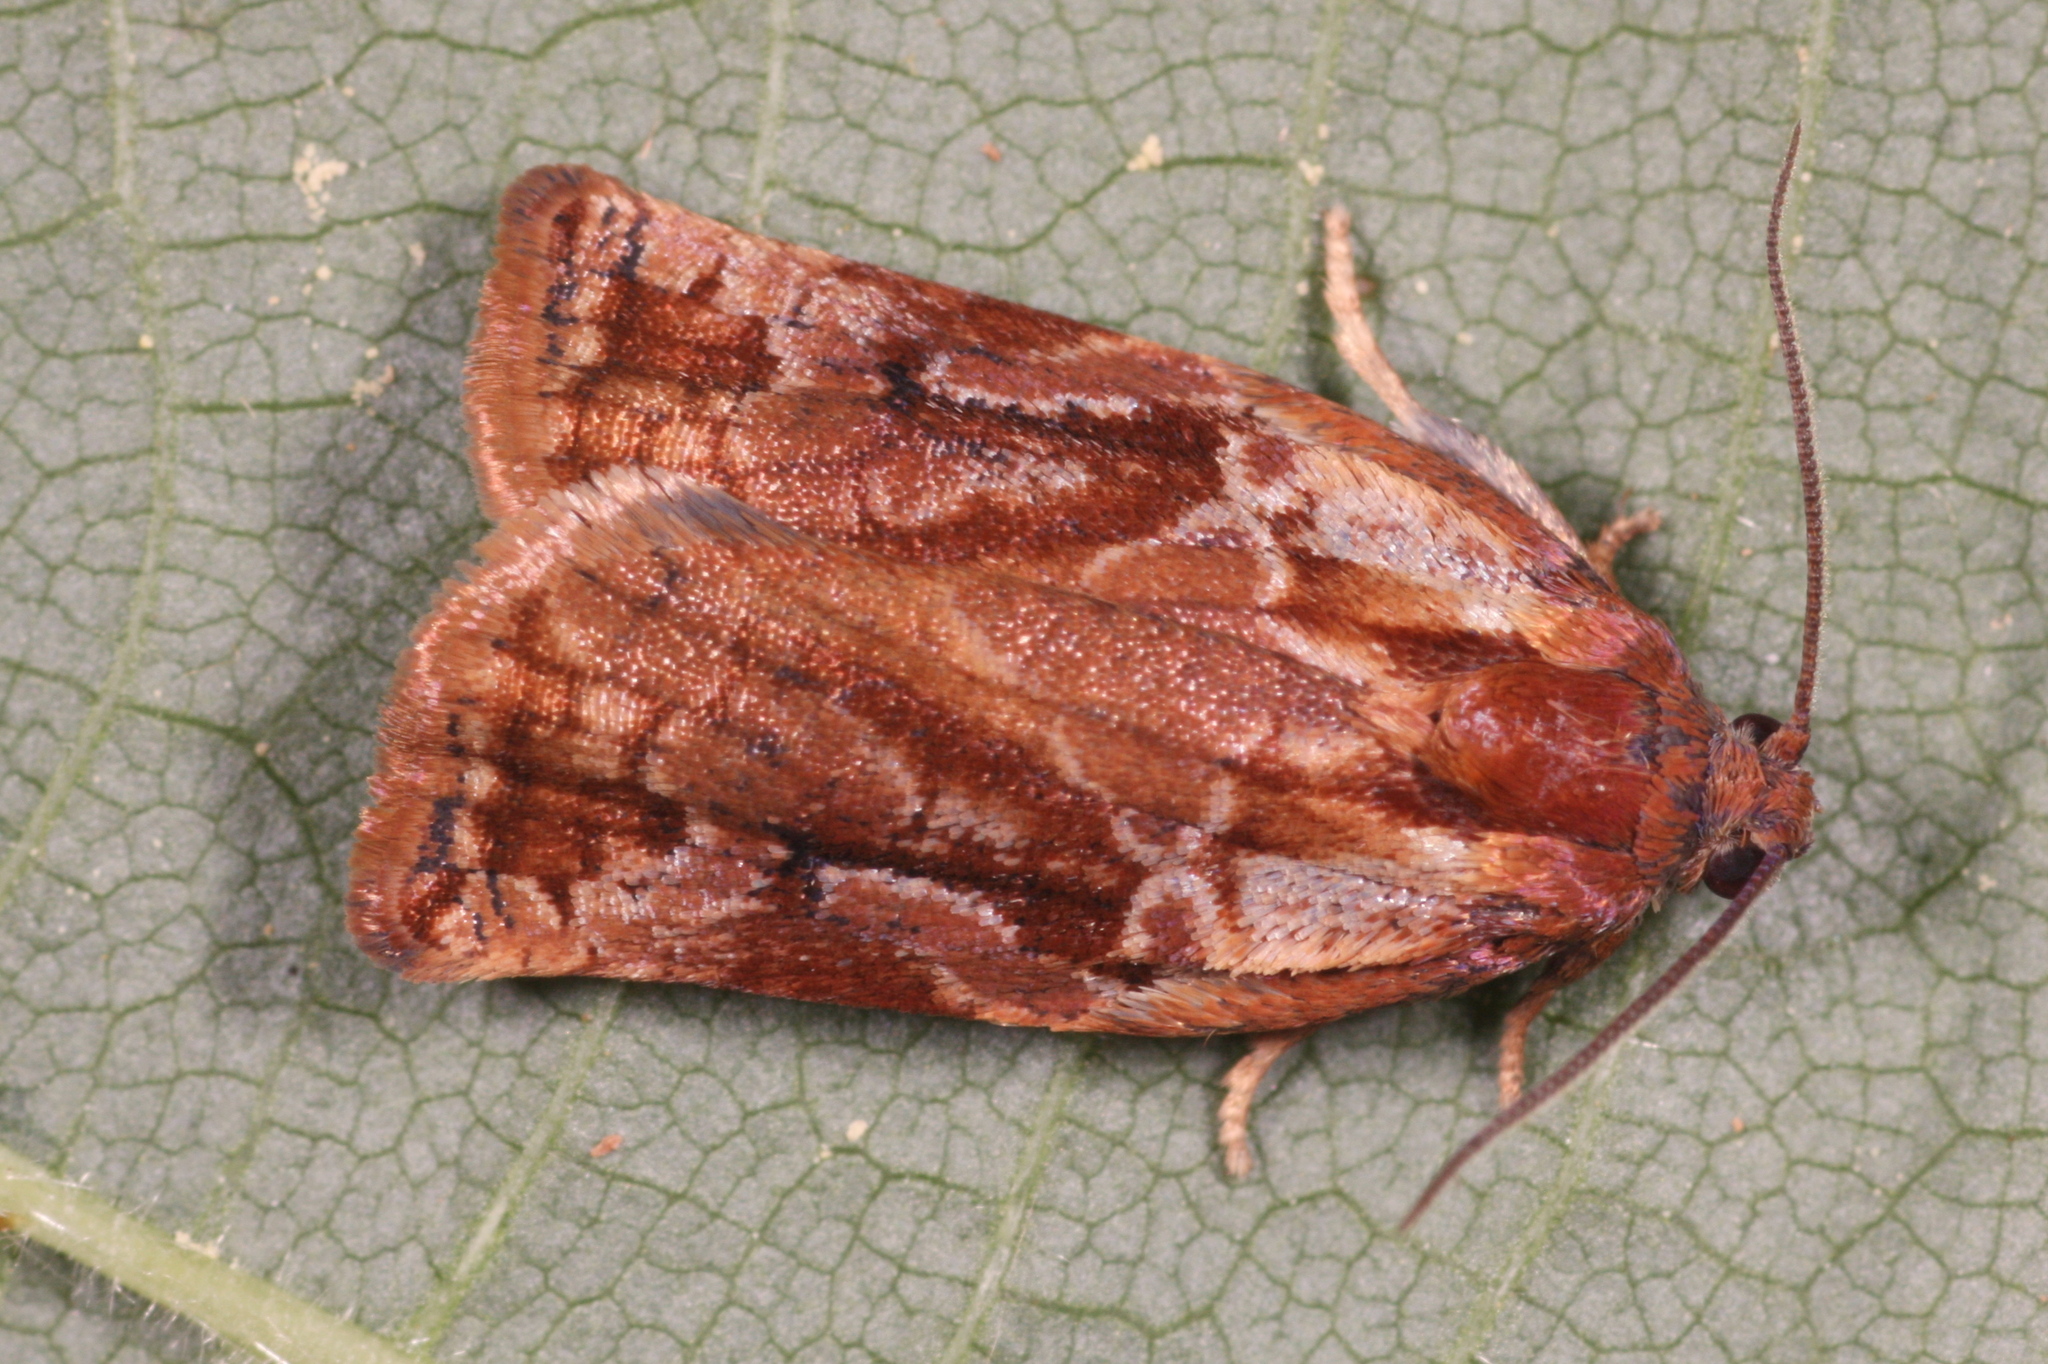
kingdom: Animalia
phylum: Arthropoda
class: Insecta
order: Lepidoptera
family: Tortricidae
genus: Archips
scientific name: Archips oporana
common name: Sprice tortrix moth
